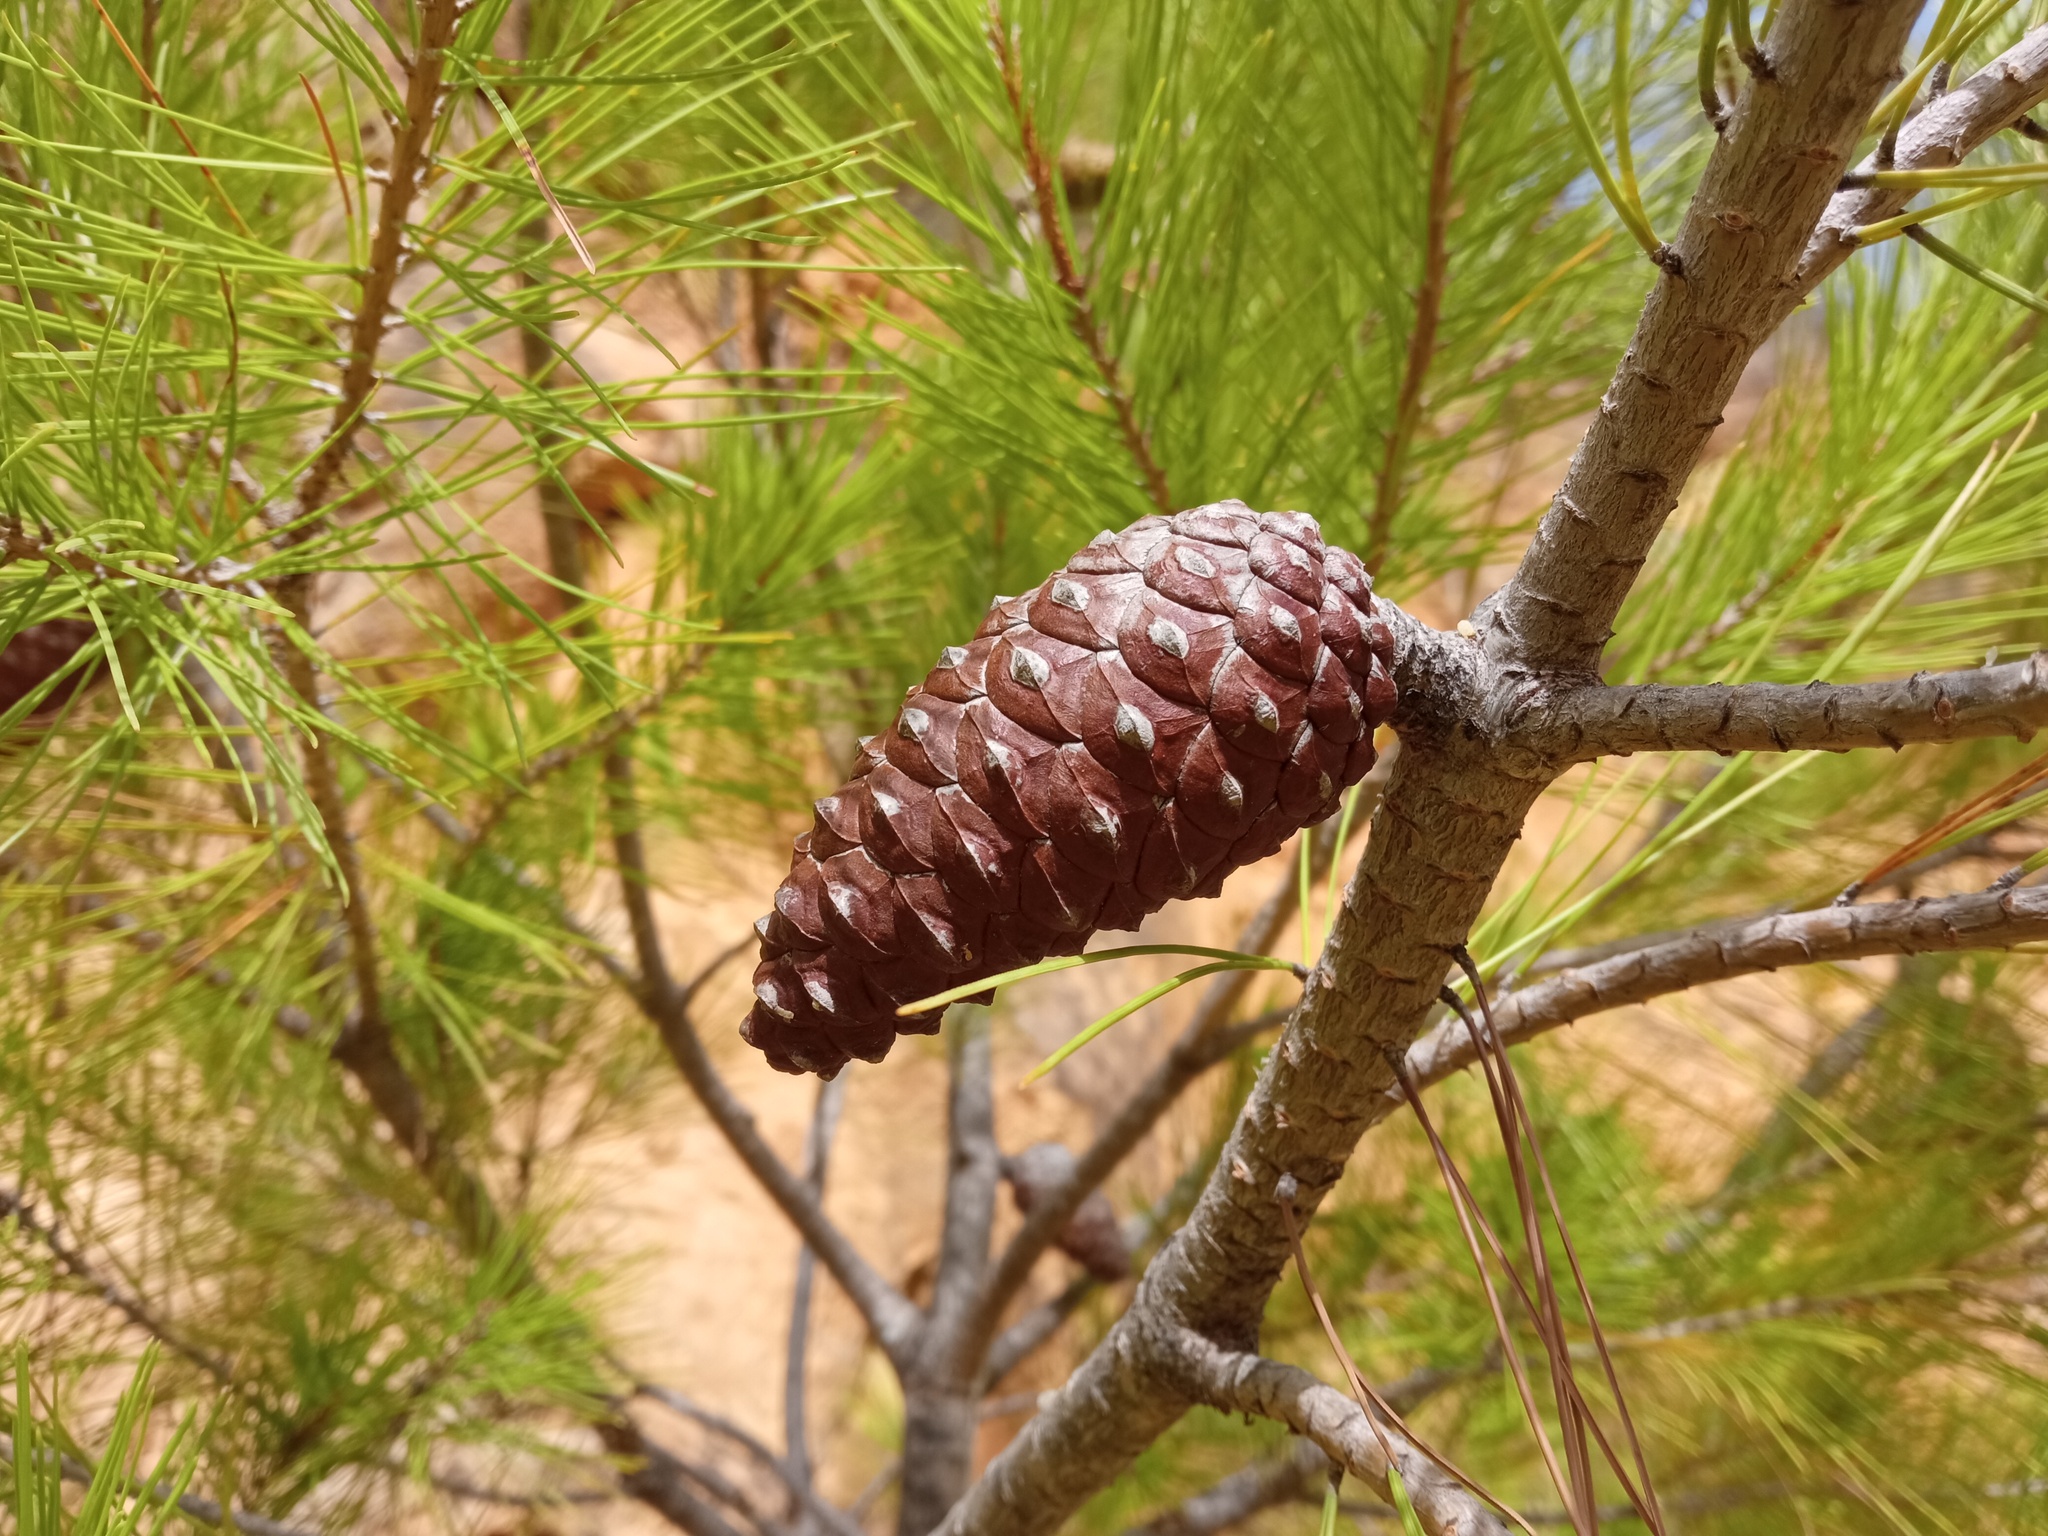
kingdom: Plantae
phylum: Tracheophyta
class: Pinopsida
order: Pinales
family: Pinaceae
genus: Pinus
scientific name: Pinus halepensis
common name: Aleppo pine
